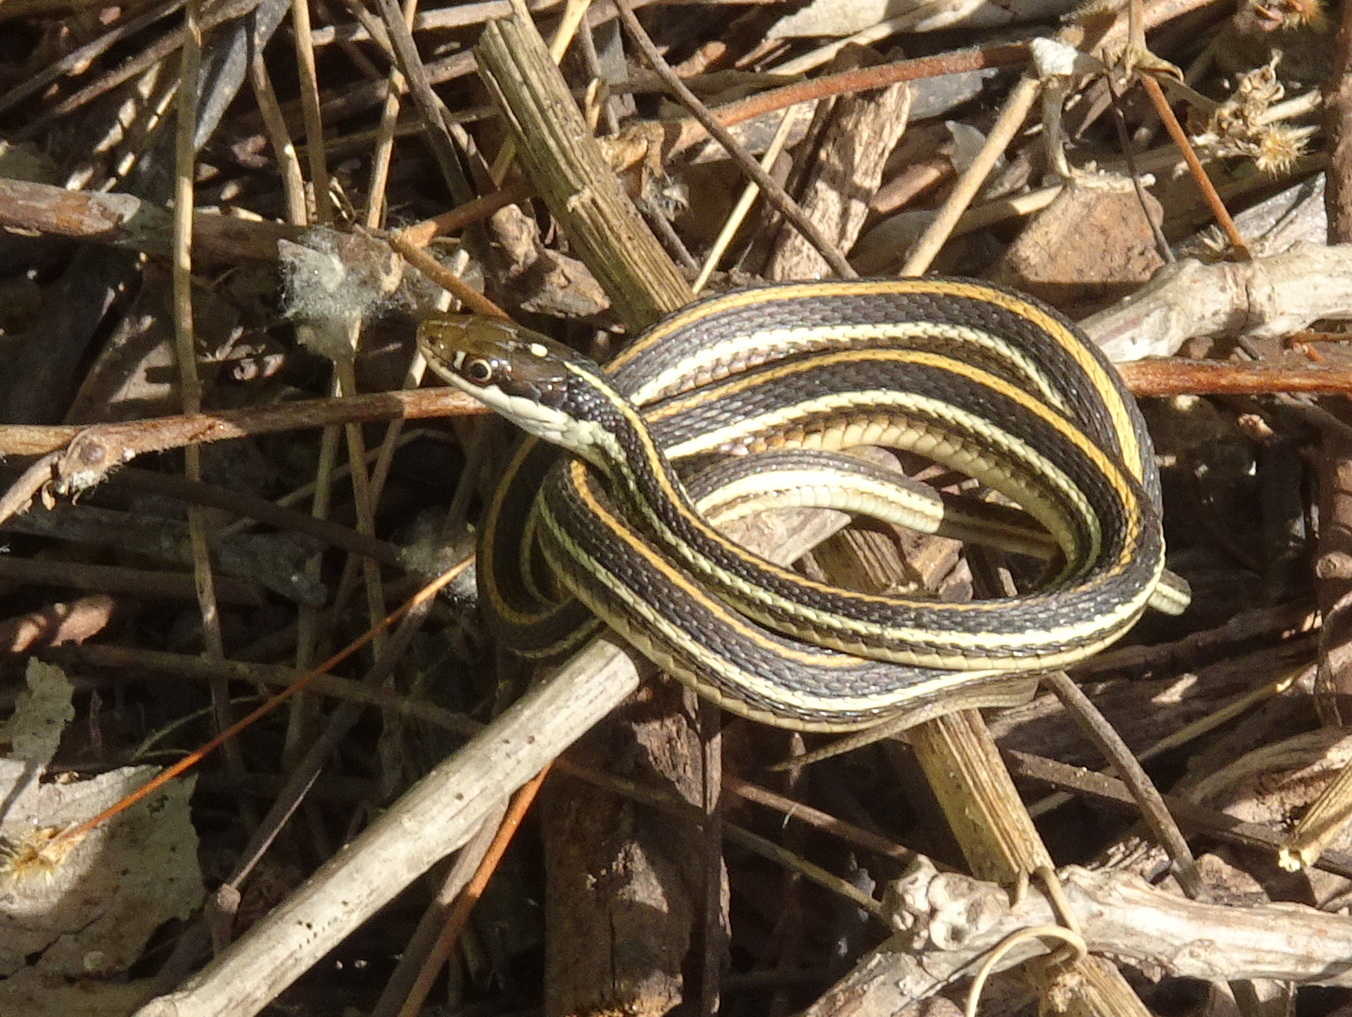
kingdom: Animalia
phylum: Chordata
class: Squamata
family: Colubridae
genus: Thamnophis
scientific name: Thamnophis proximus
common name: Western ribbon snake
